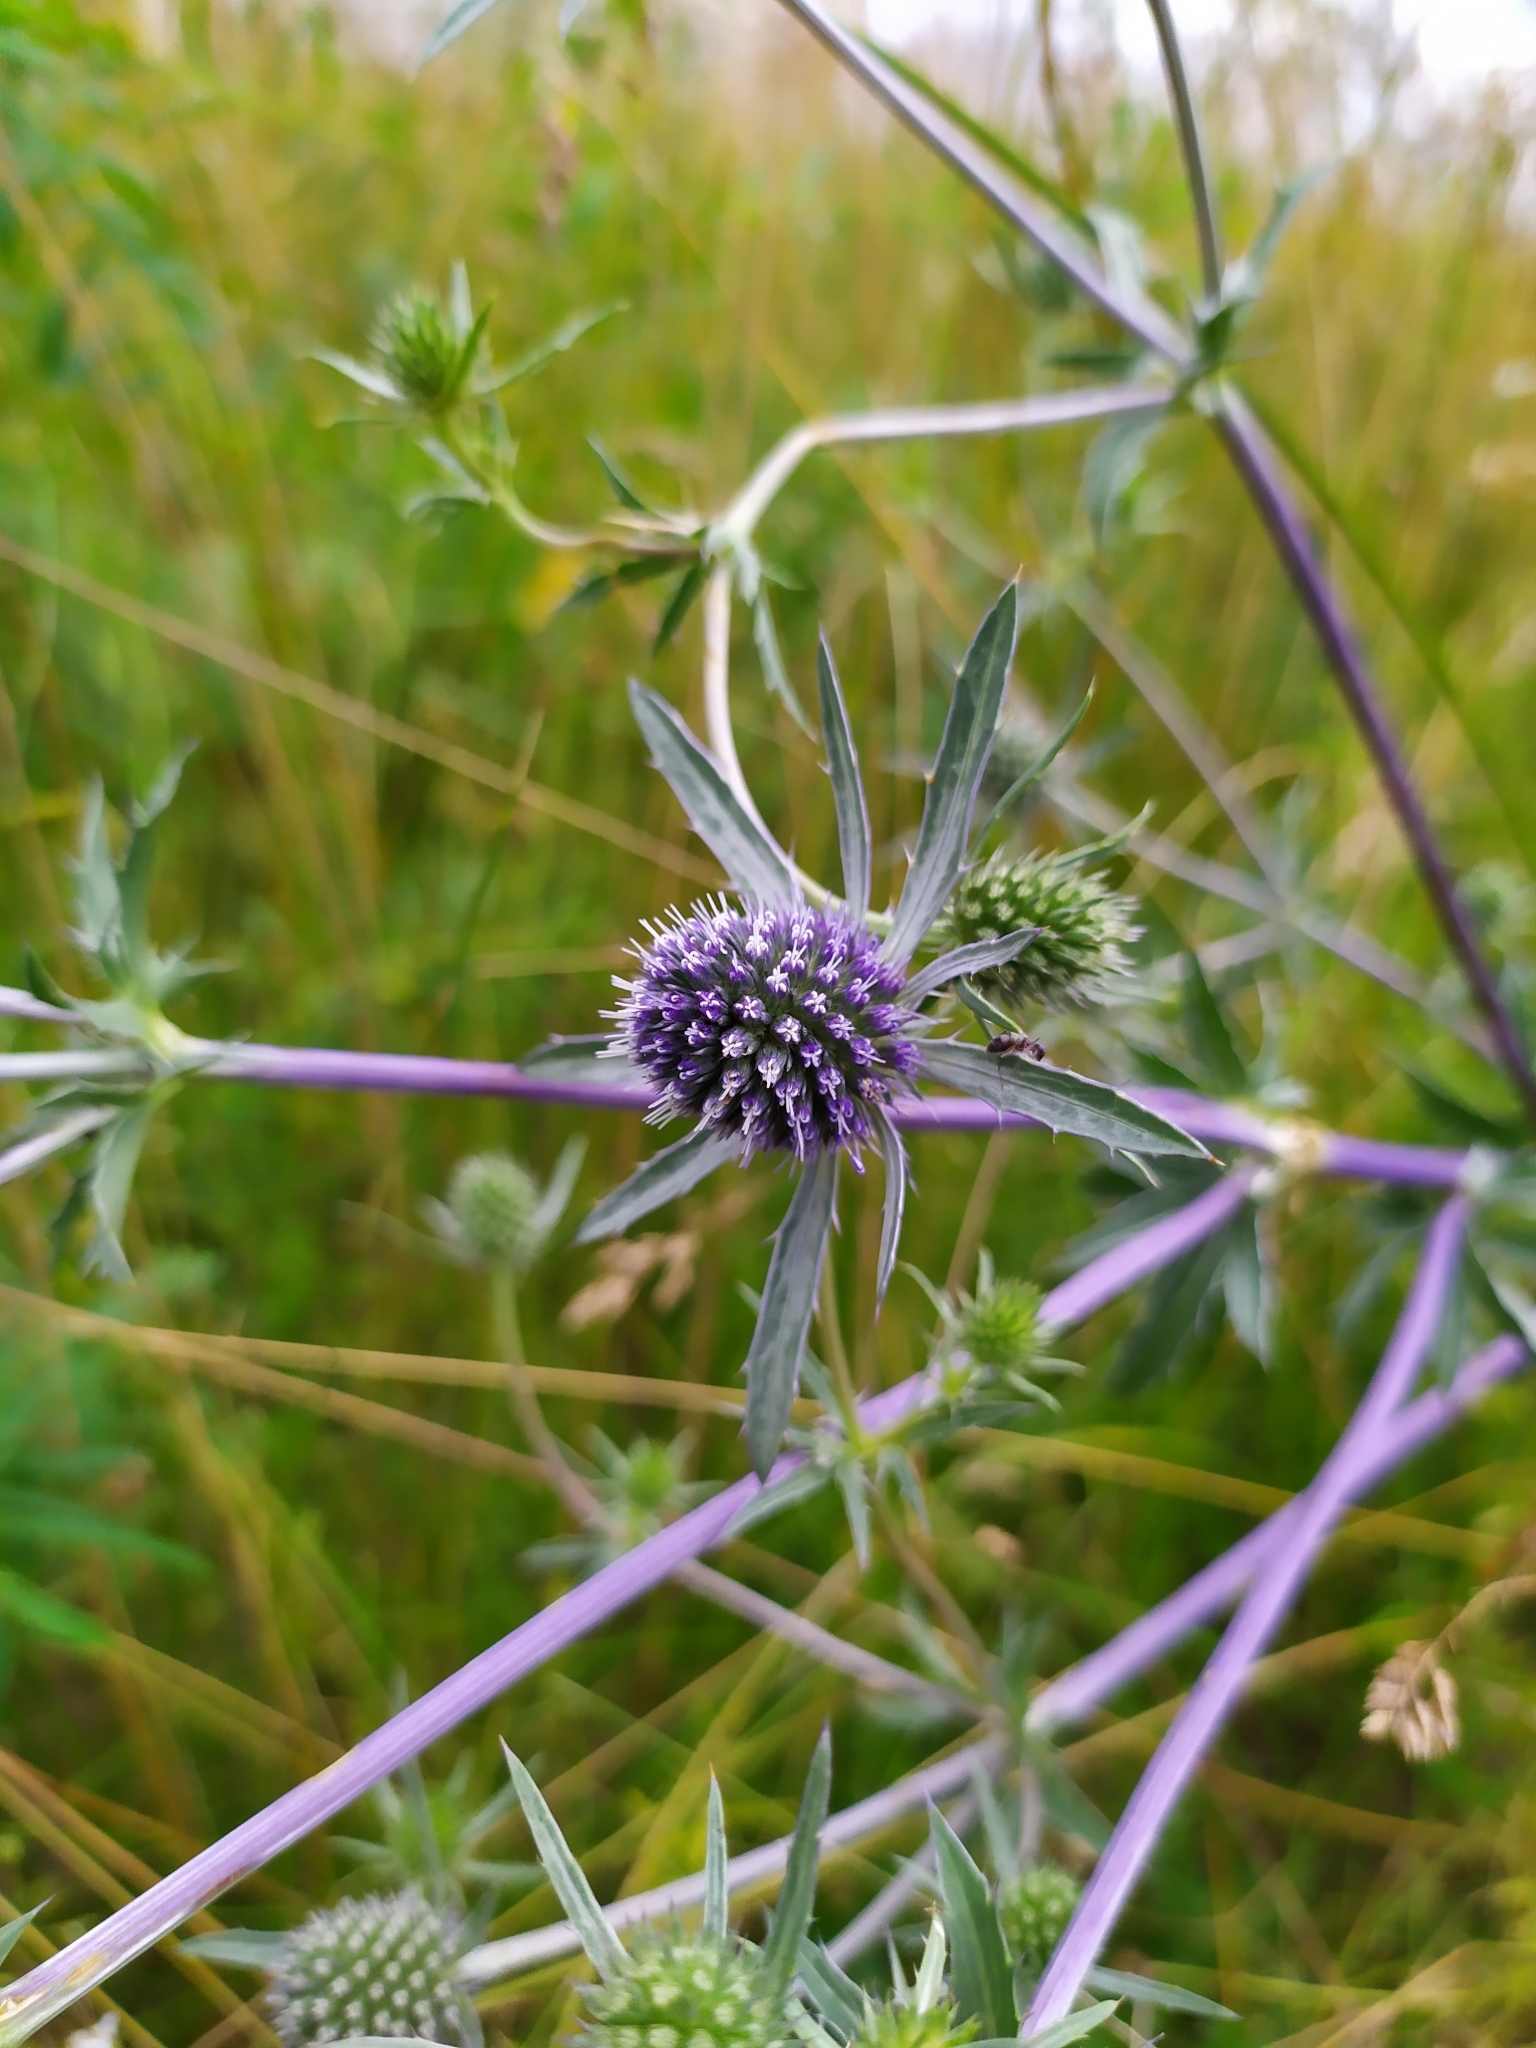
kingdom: Plantae
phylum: Tracheophyta
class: Magnoliopsida
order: Apiales
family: Apiaceae
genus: Eryngium
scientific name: Eryngium planum
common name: Blue eryngo
